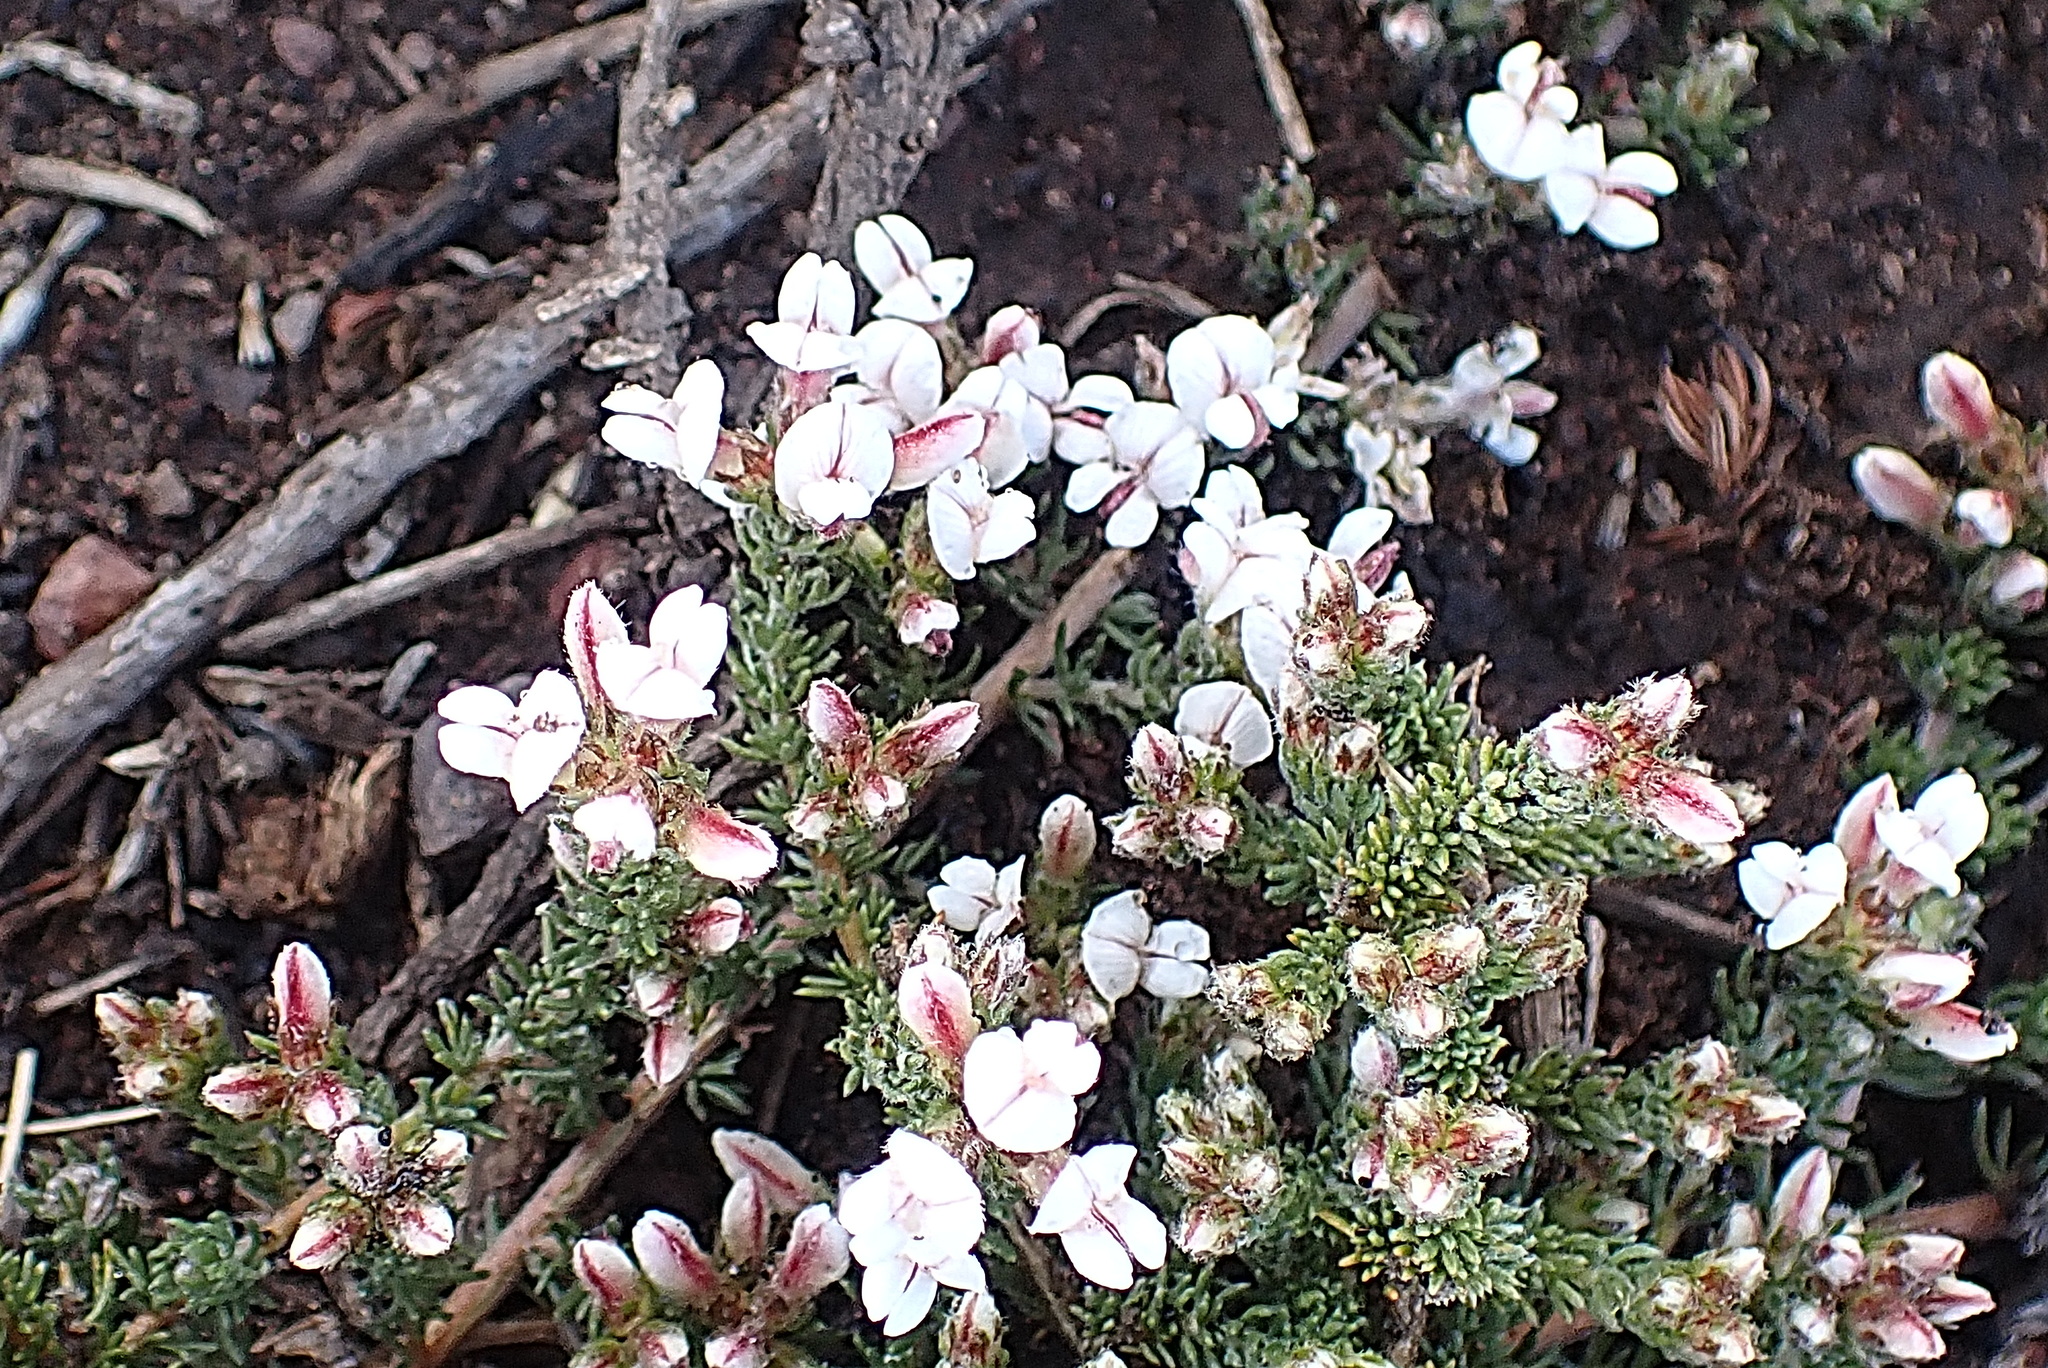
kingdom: Plantae
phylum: Tracheophyta
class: Magnoliopsida
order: Fabales
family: Fabaceae
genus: Aspalathus
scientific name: Aspalathus submissa
